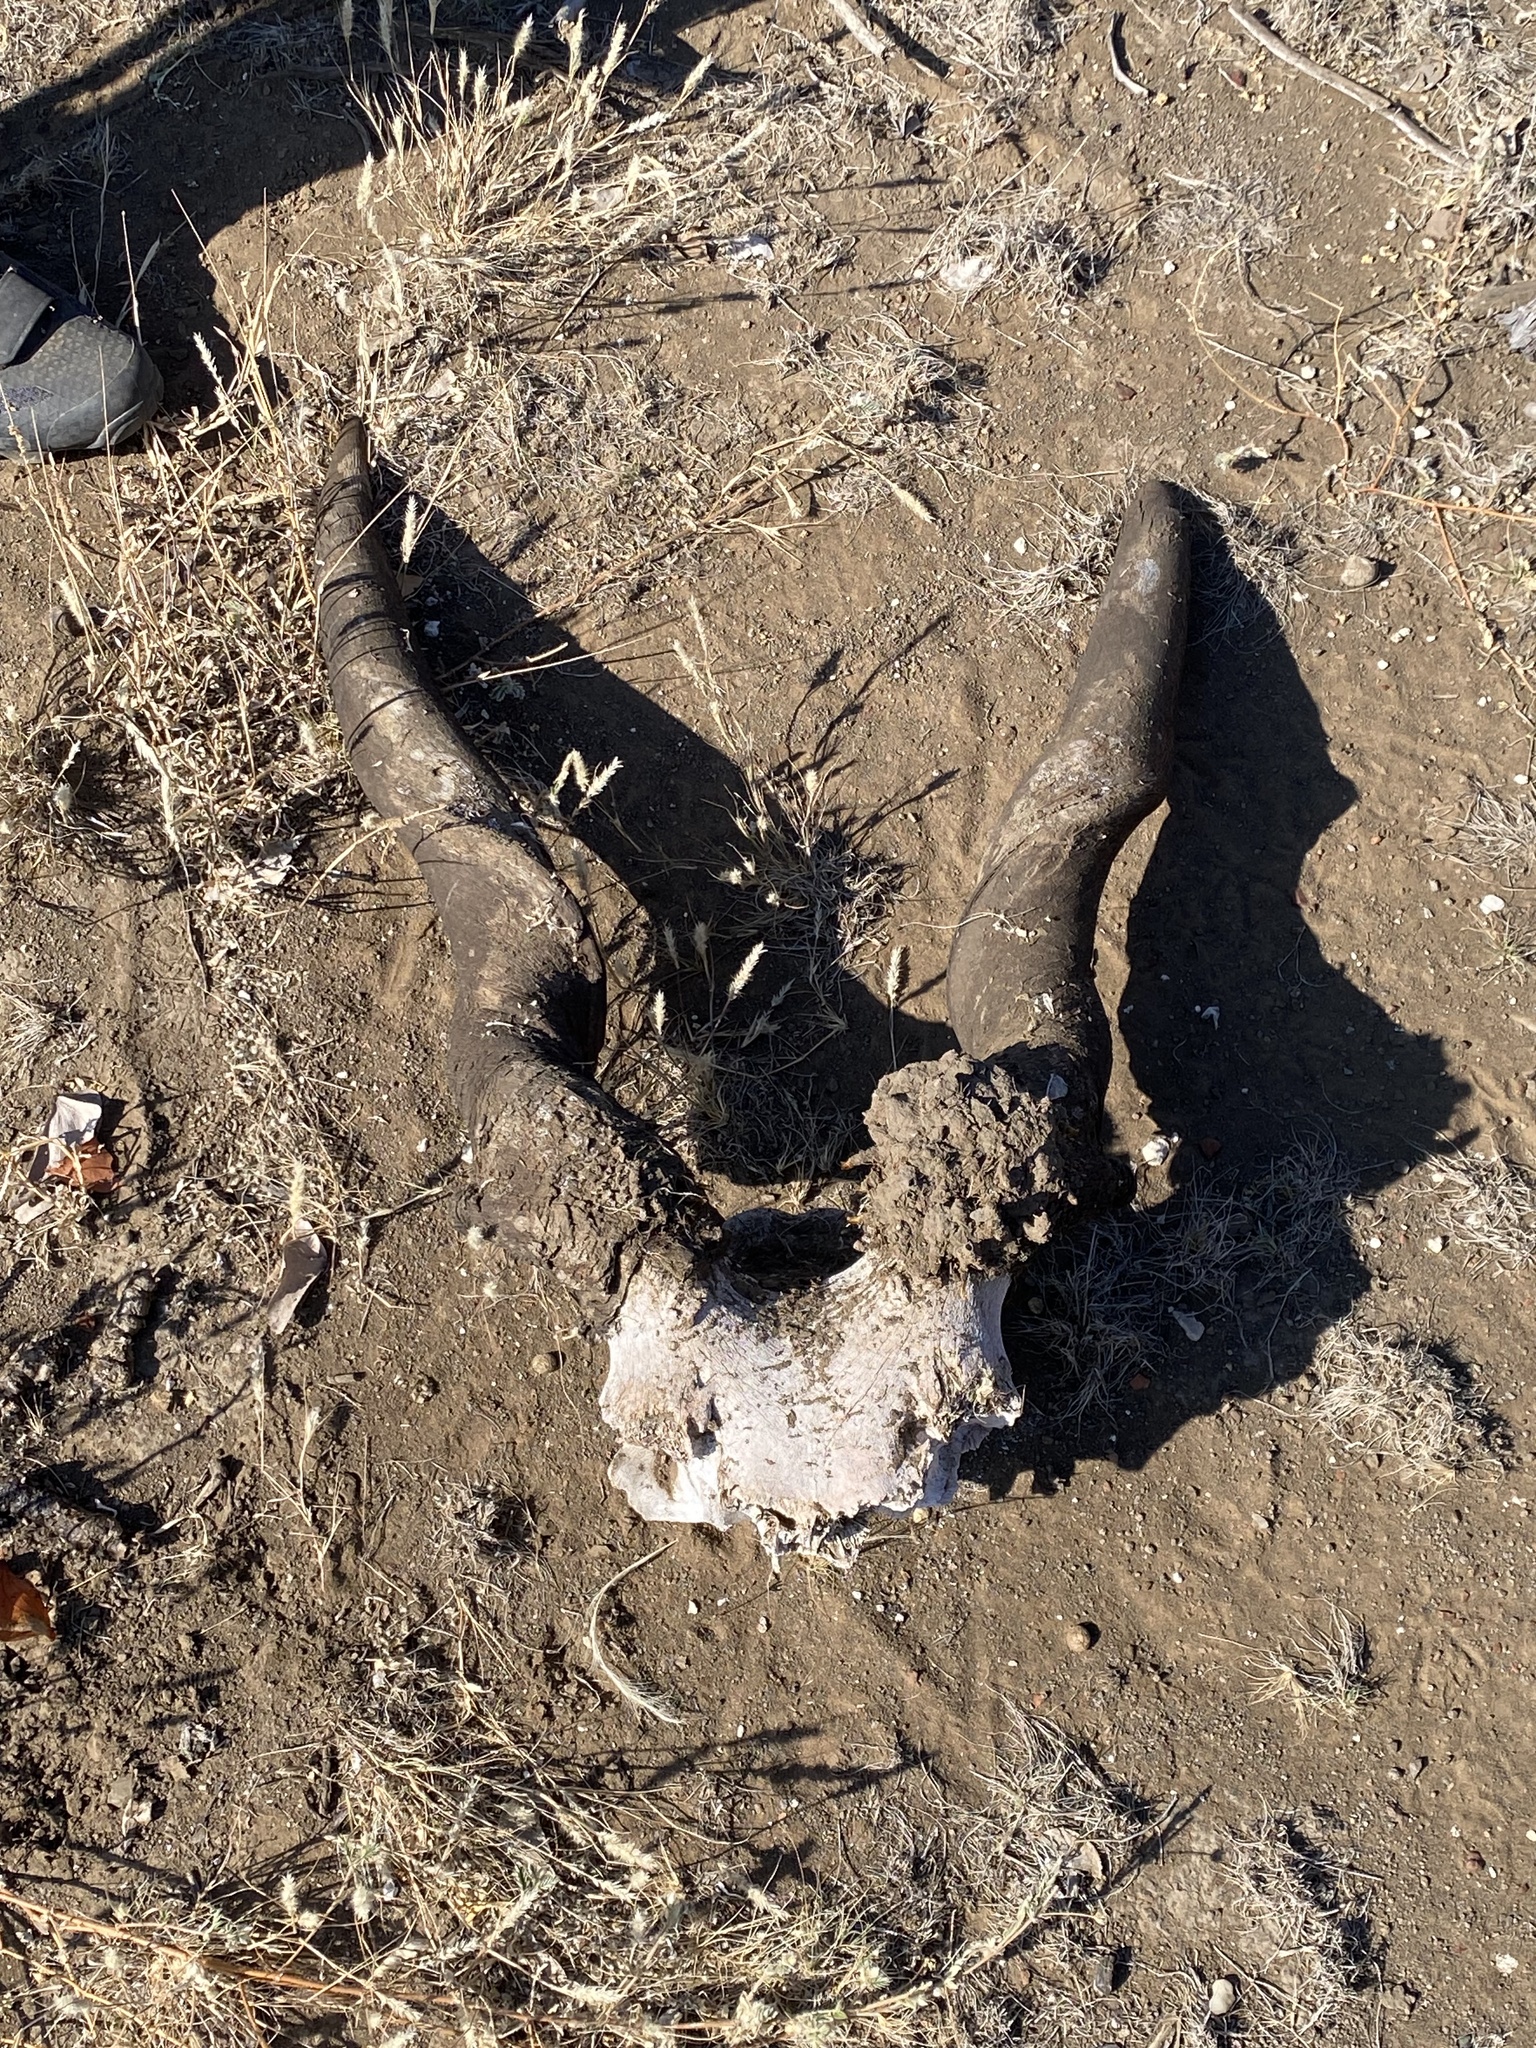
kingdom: Animalia
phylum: Chordata
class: Mammalia
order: Artiodactyla
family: Bovidae
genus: Taurotragus
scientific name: Taurotragus oryx
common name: Common eland
